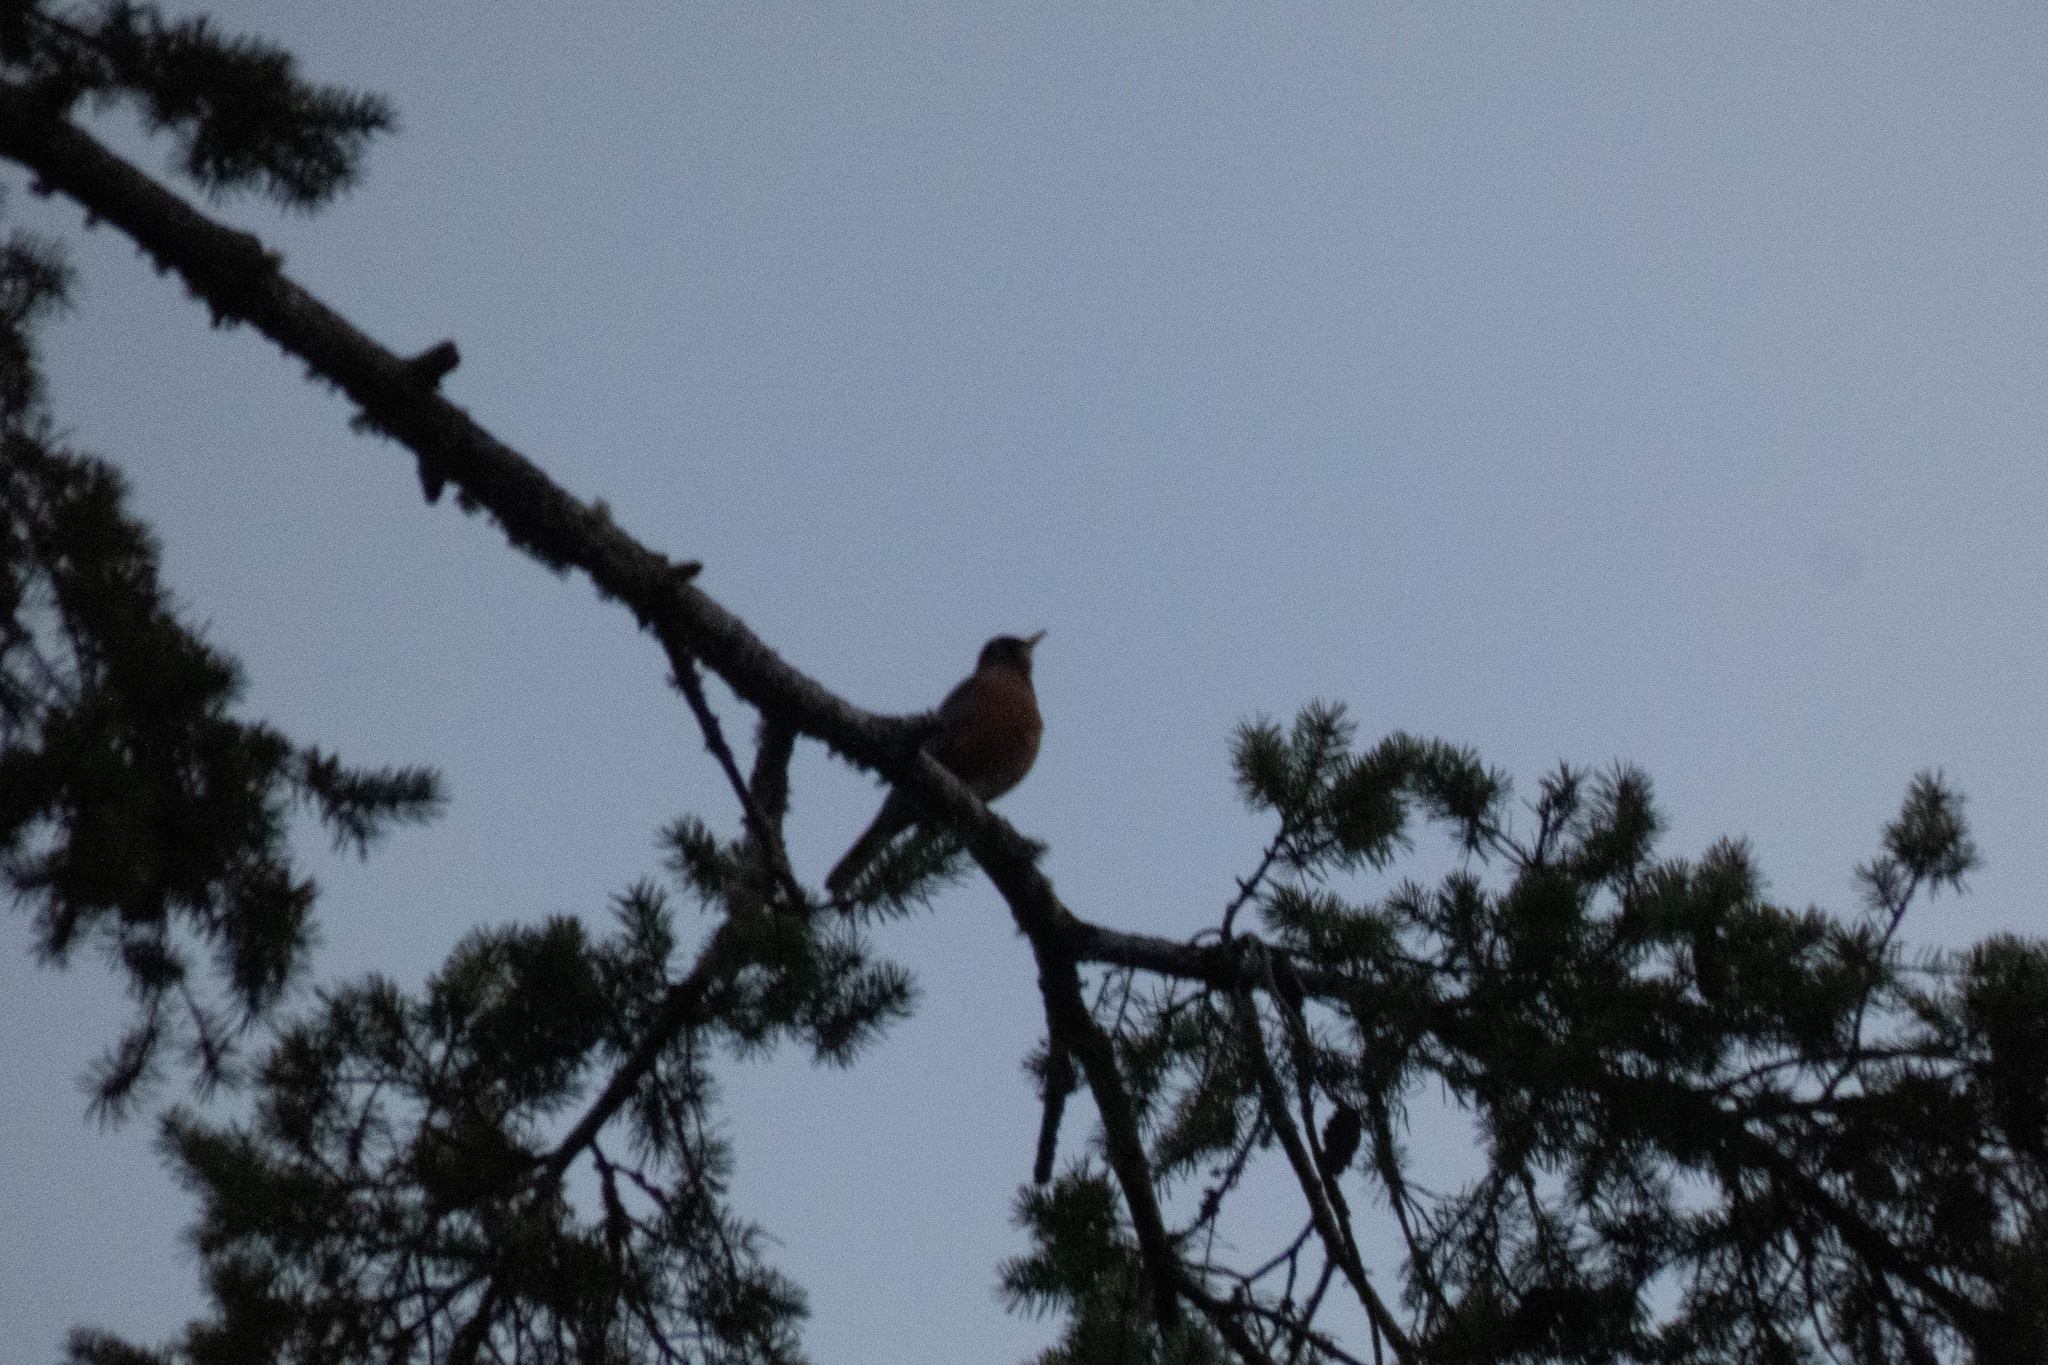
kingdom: Animalia
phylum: Chordata
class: Aves
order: Passeriformes
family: Turdidae
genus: Turdus
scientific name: Turdus migratorius
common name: American robin
